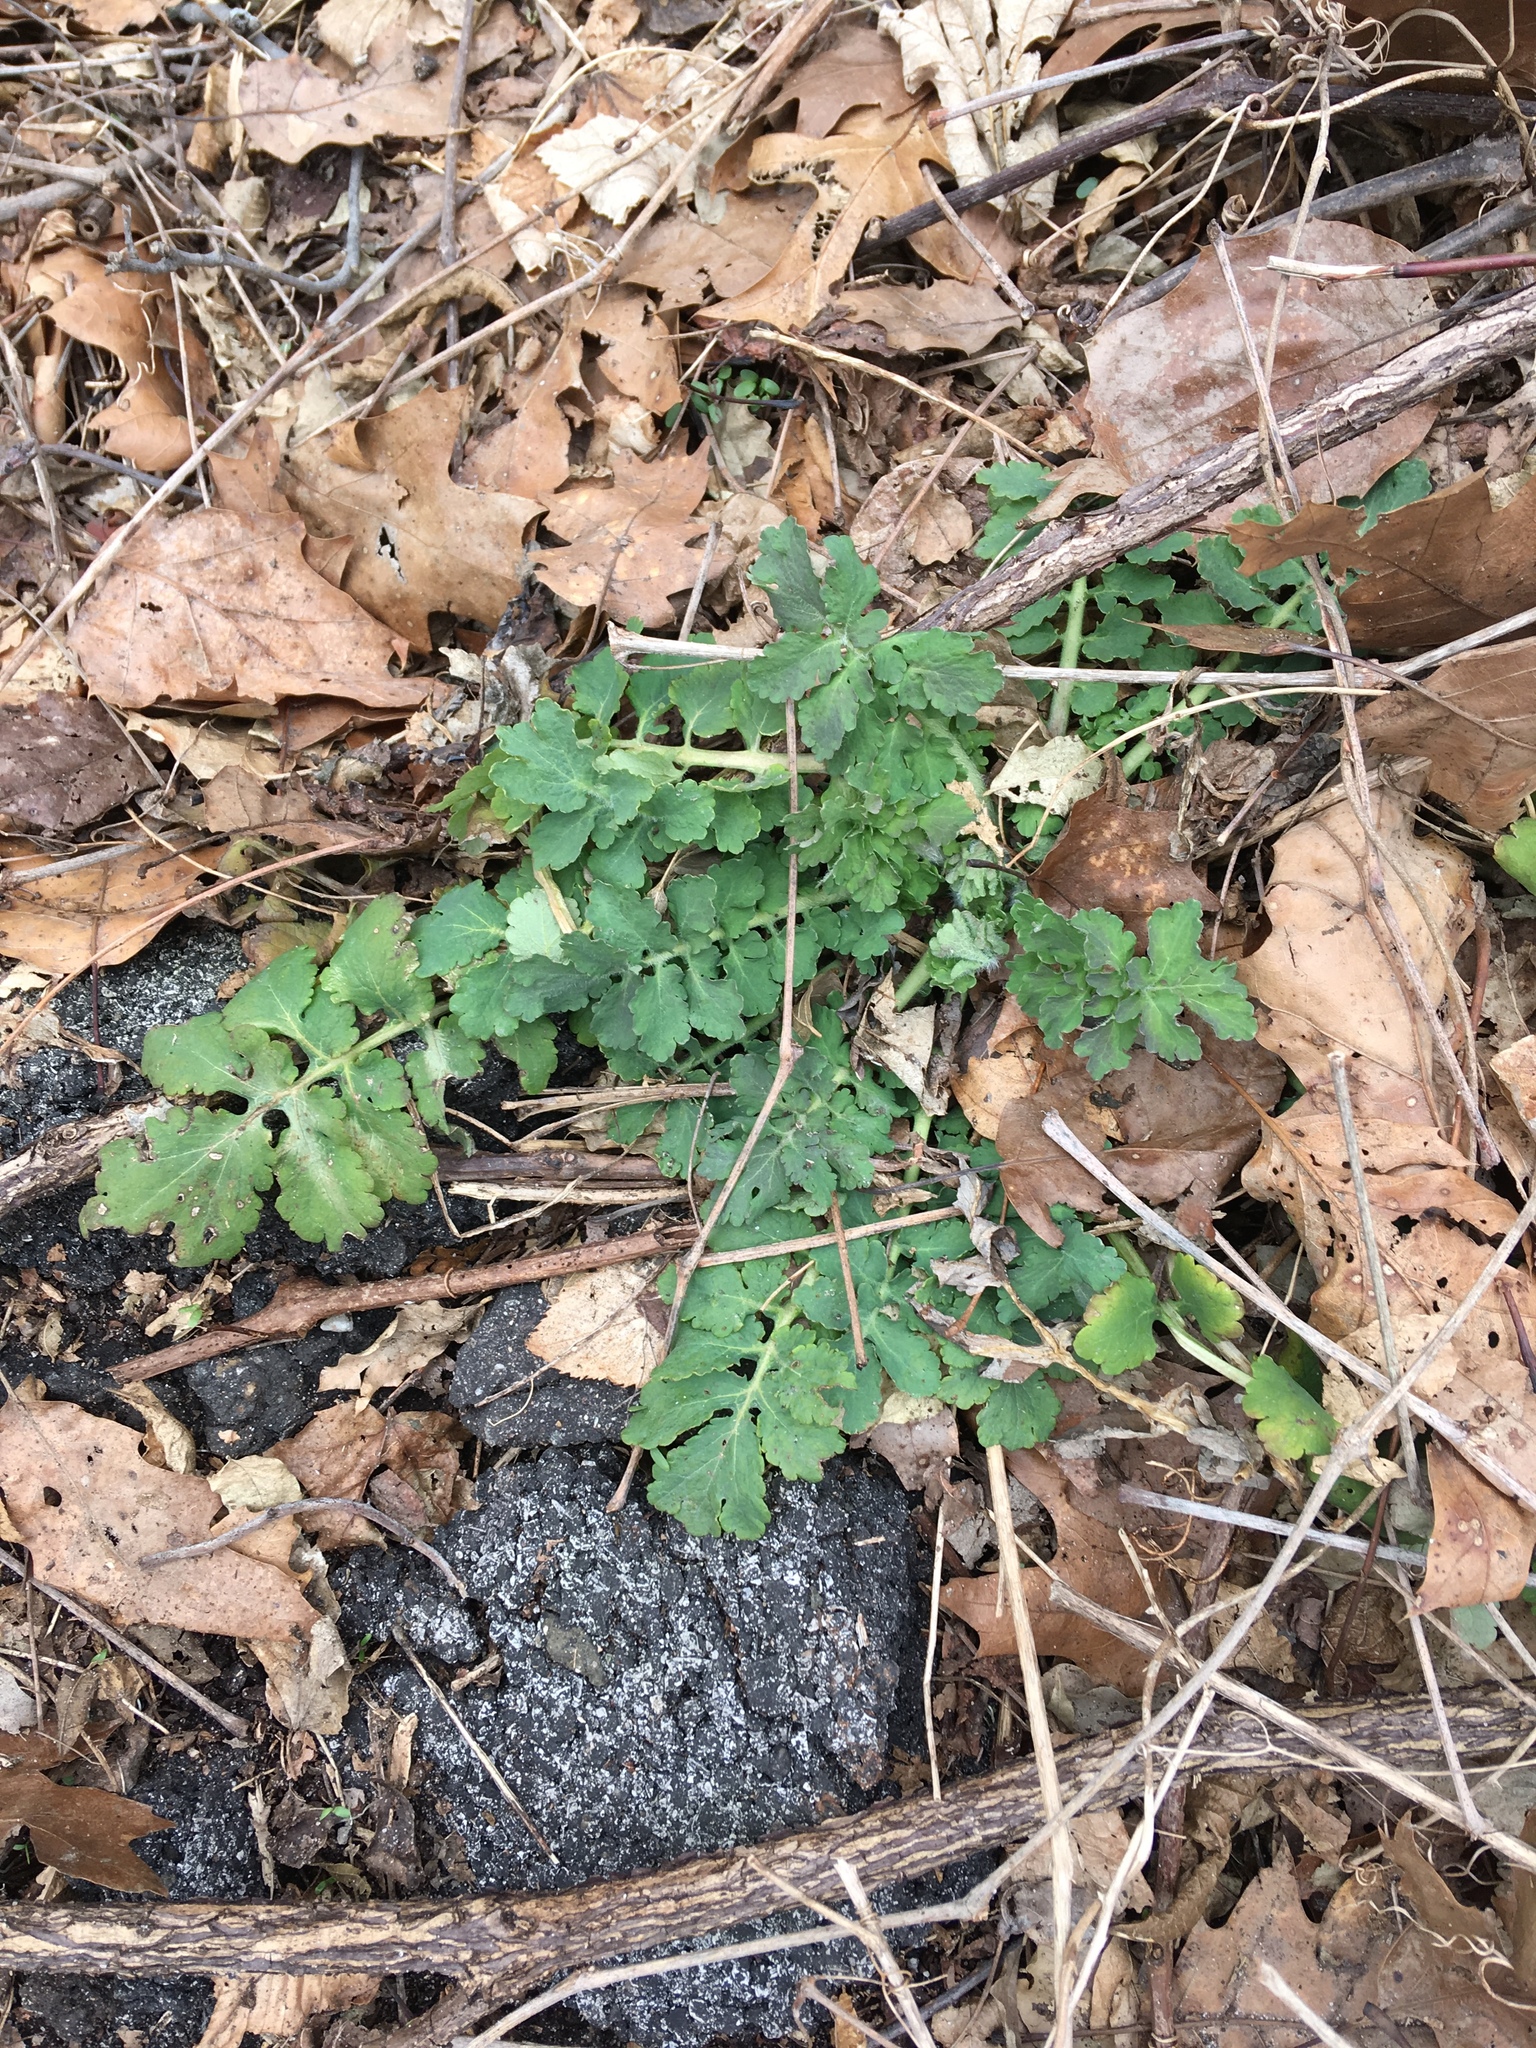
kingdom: Plantae
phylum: Tracheophyta
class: Magnoliopsida
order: Ranunculales
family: Papaveraceae
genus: Chelidonium
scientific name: Chelidonium majus
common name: Greater celandine
